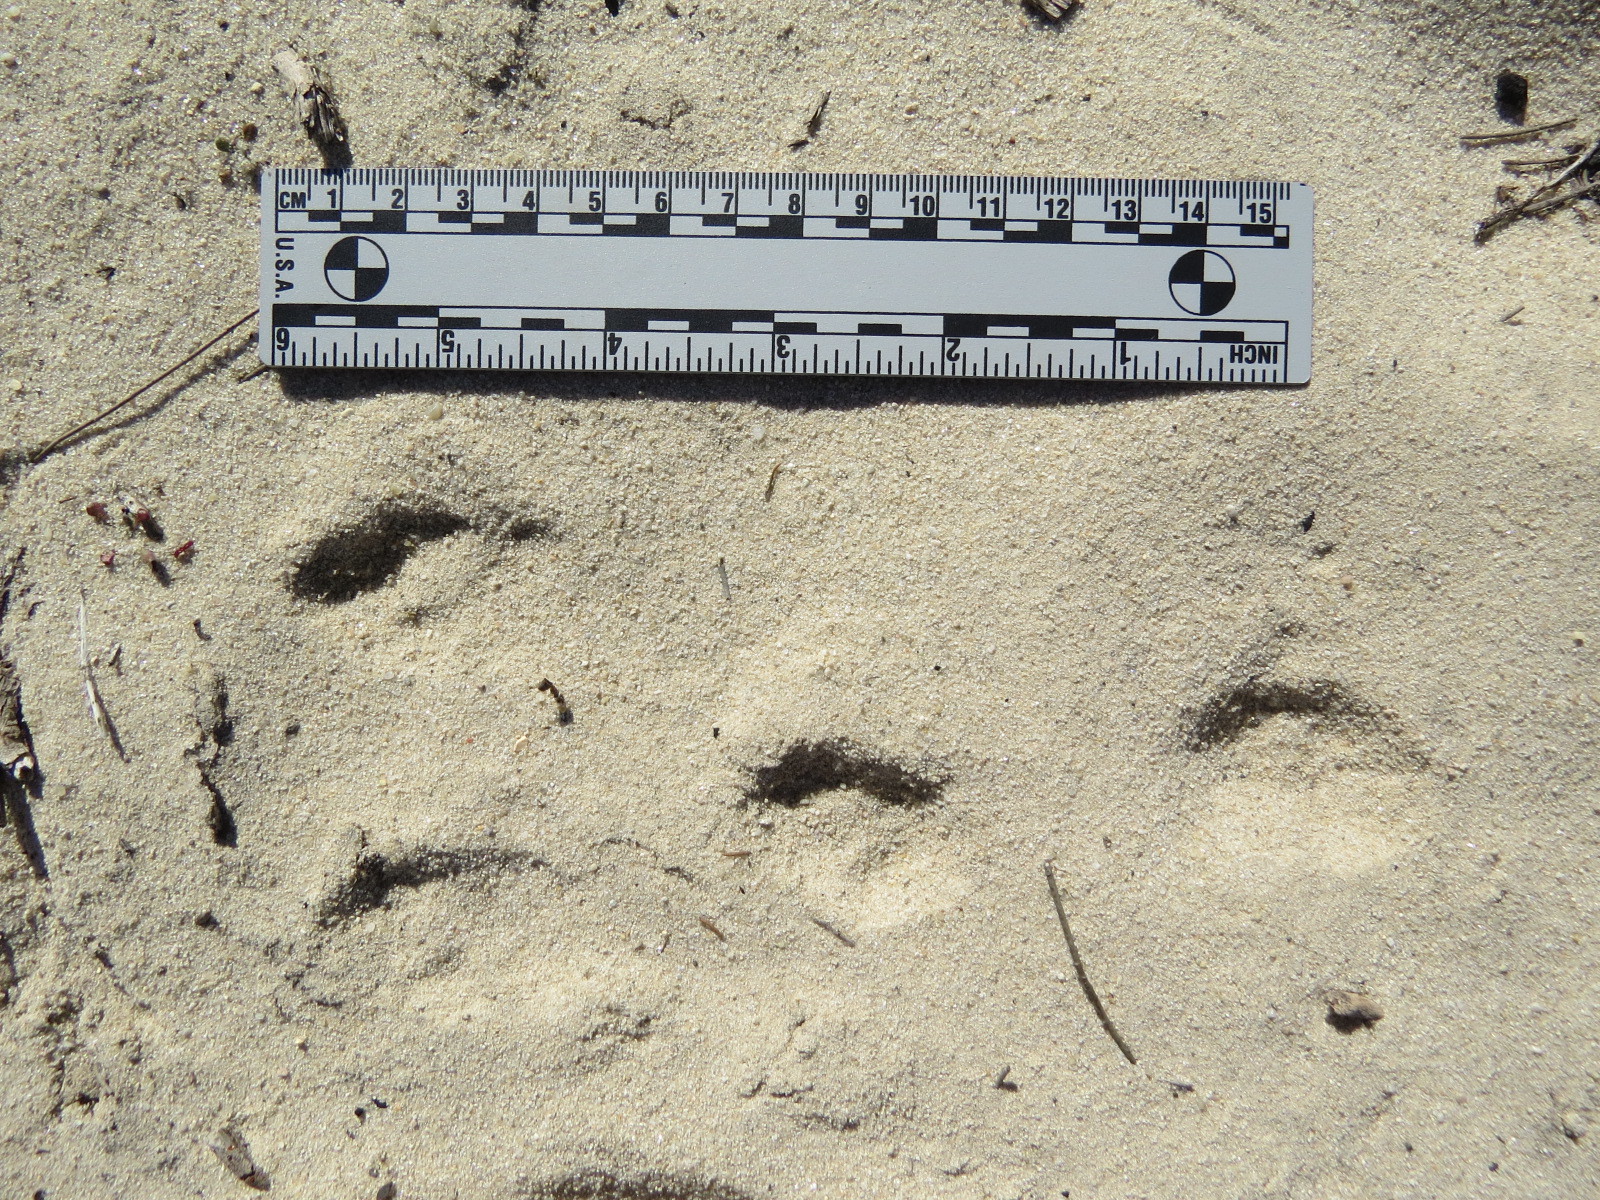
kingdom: Animalia
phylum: Chordata
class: Mammalia
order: Lagomorpha
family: Leporidae
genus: Sylvilagus
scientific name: Sylvilagus bachmani
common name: Brush rabbit
